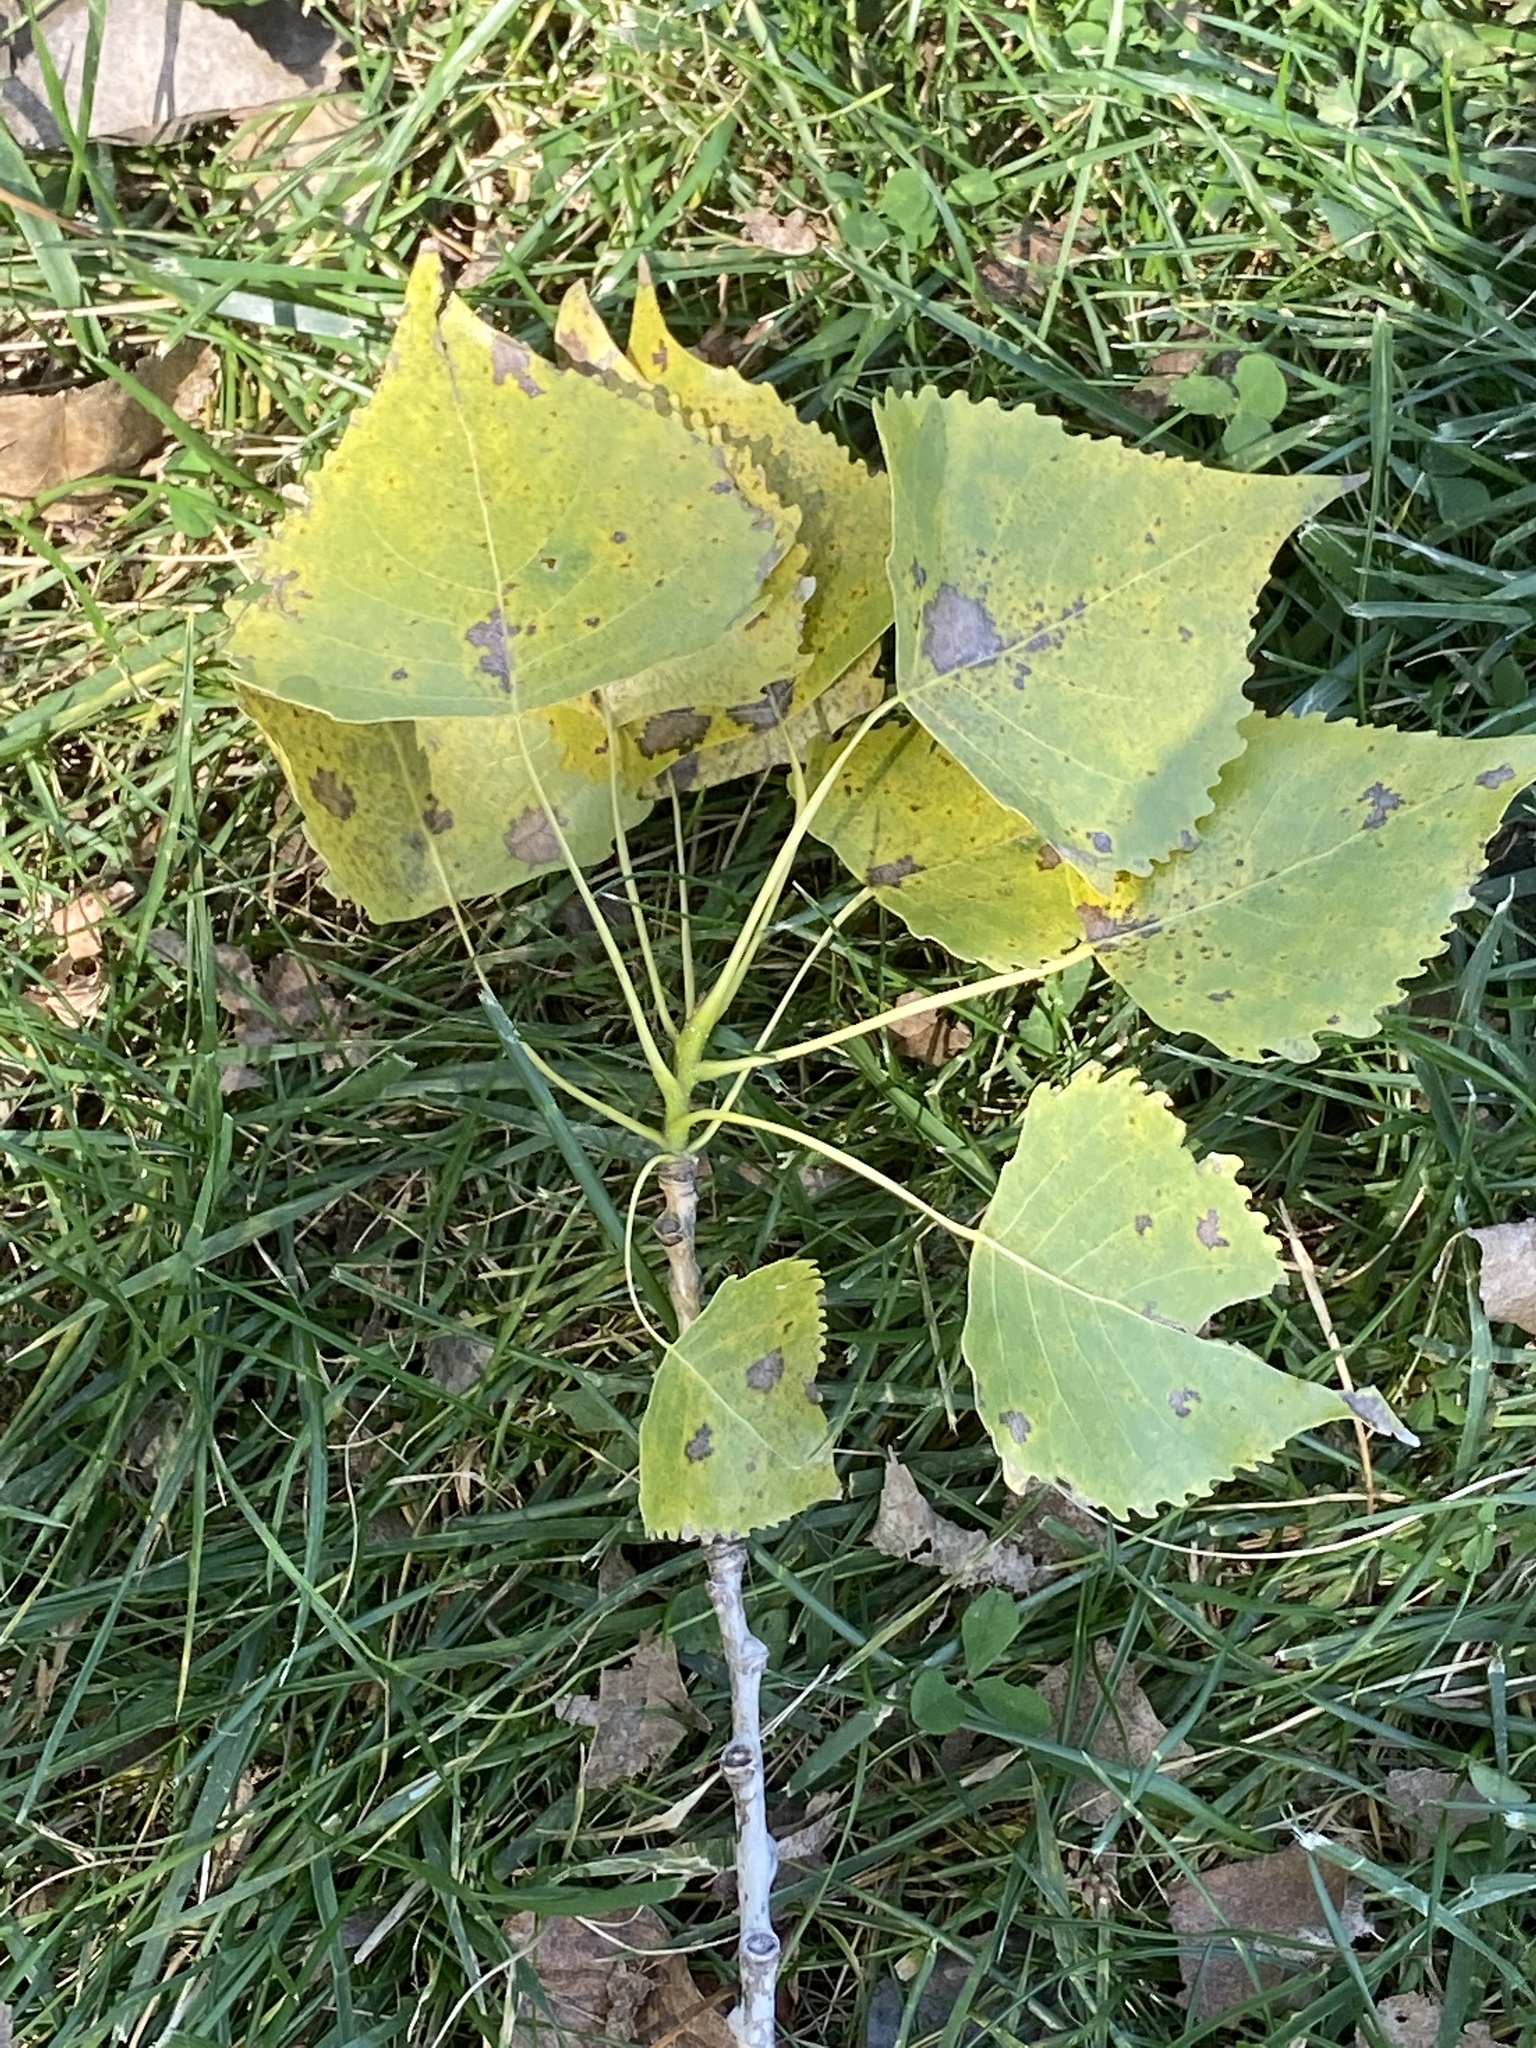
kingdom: Plantae
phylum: Tracheophyta
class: Magnoliopsida
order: Malpighiales
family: Salicaceae
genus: Populus
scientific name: Populus deltoides
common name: Eastern cottonwood
